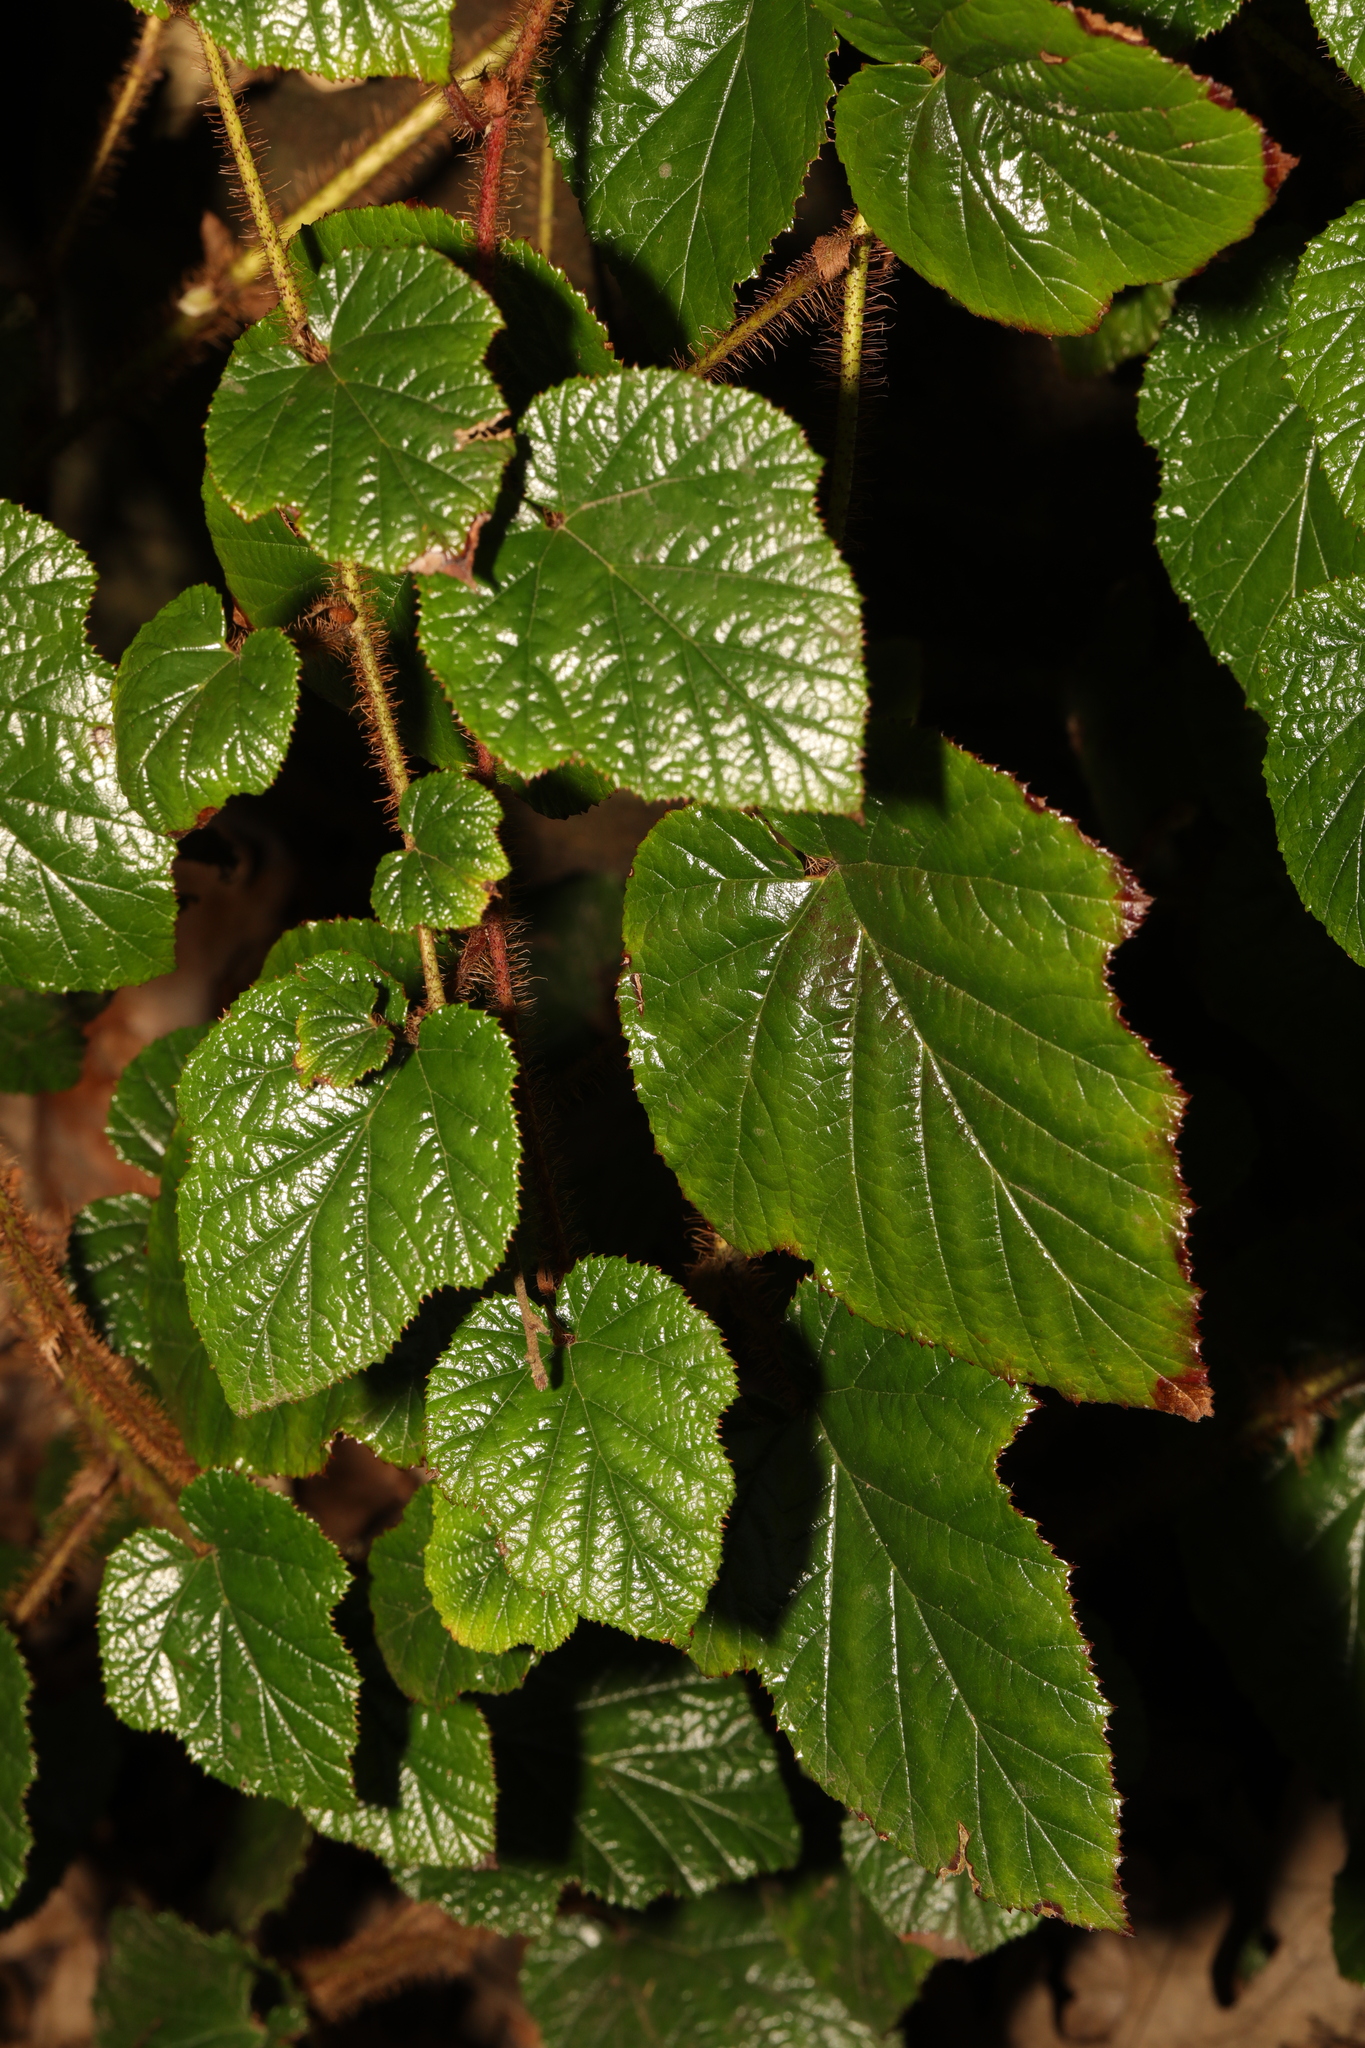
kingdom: Plantae
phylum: Tracheophyta
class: Magnoliopsida
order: Rosales
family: Rosaceae
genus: Rubus
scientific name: Rubus tricolor
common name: Chinese bramble
